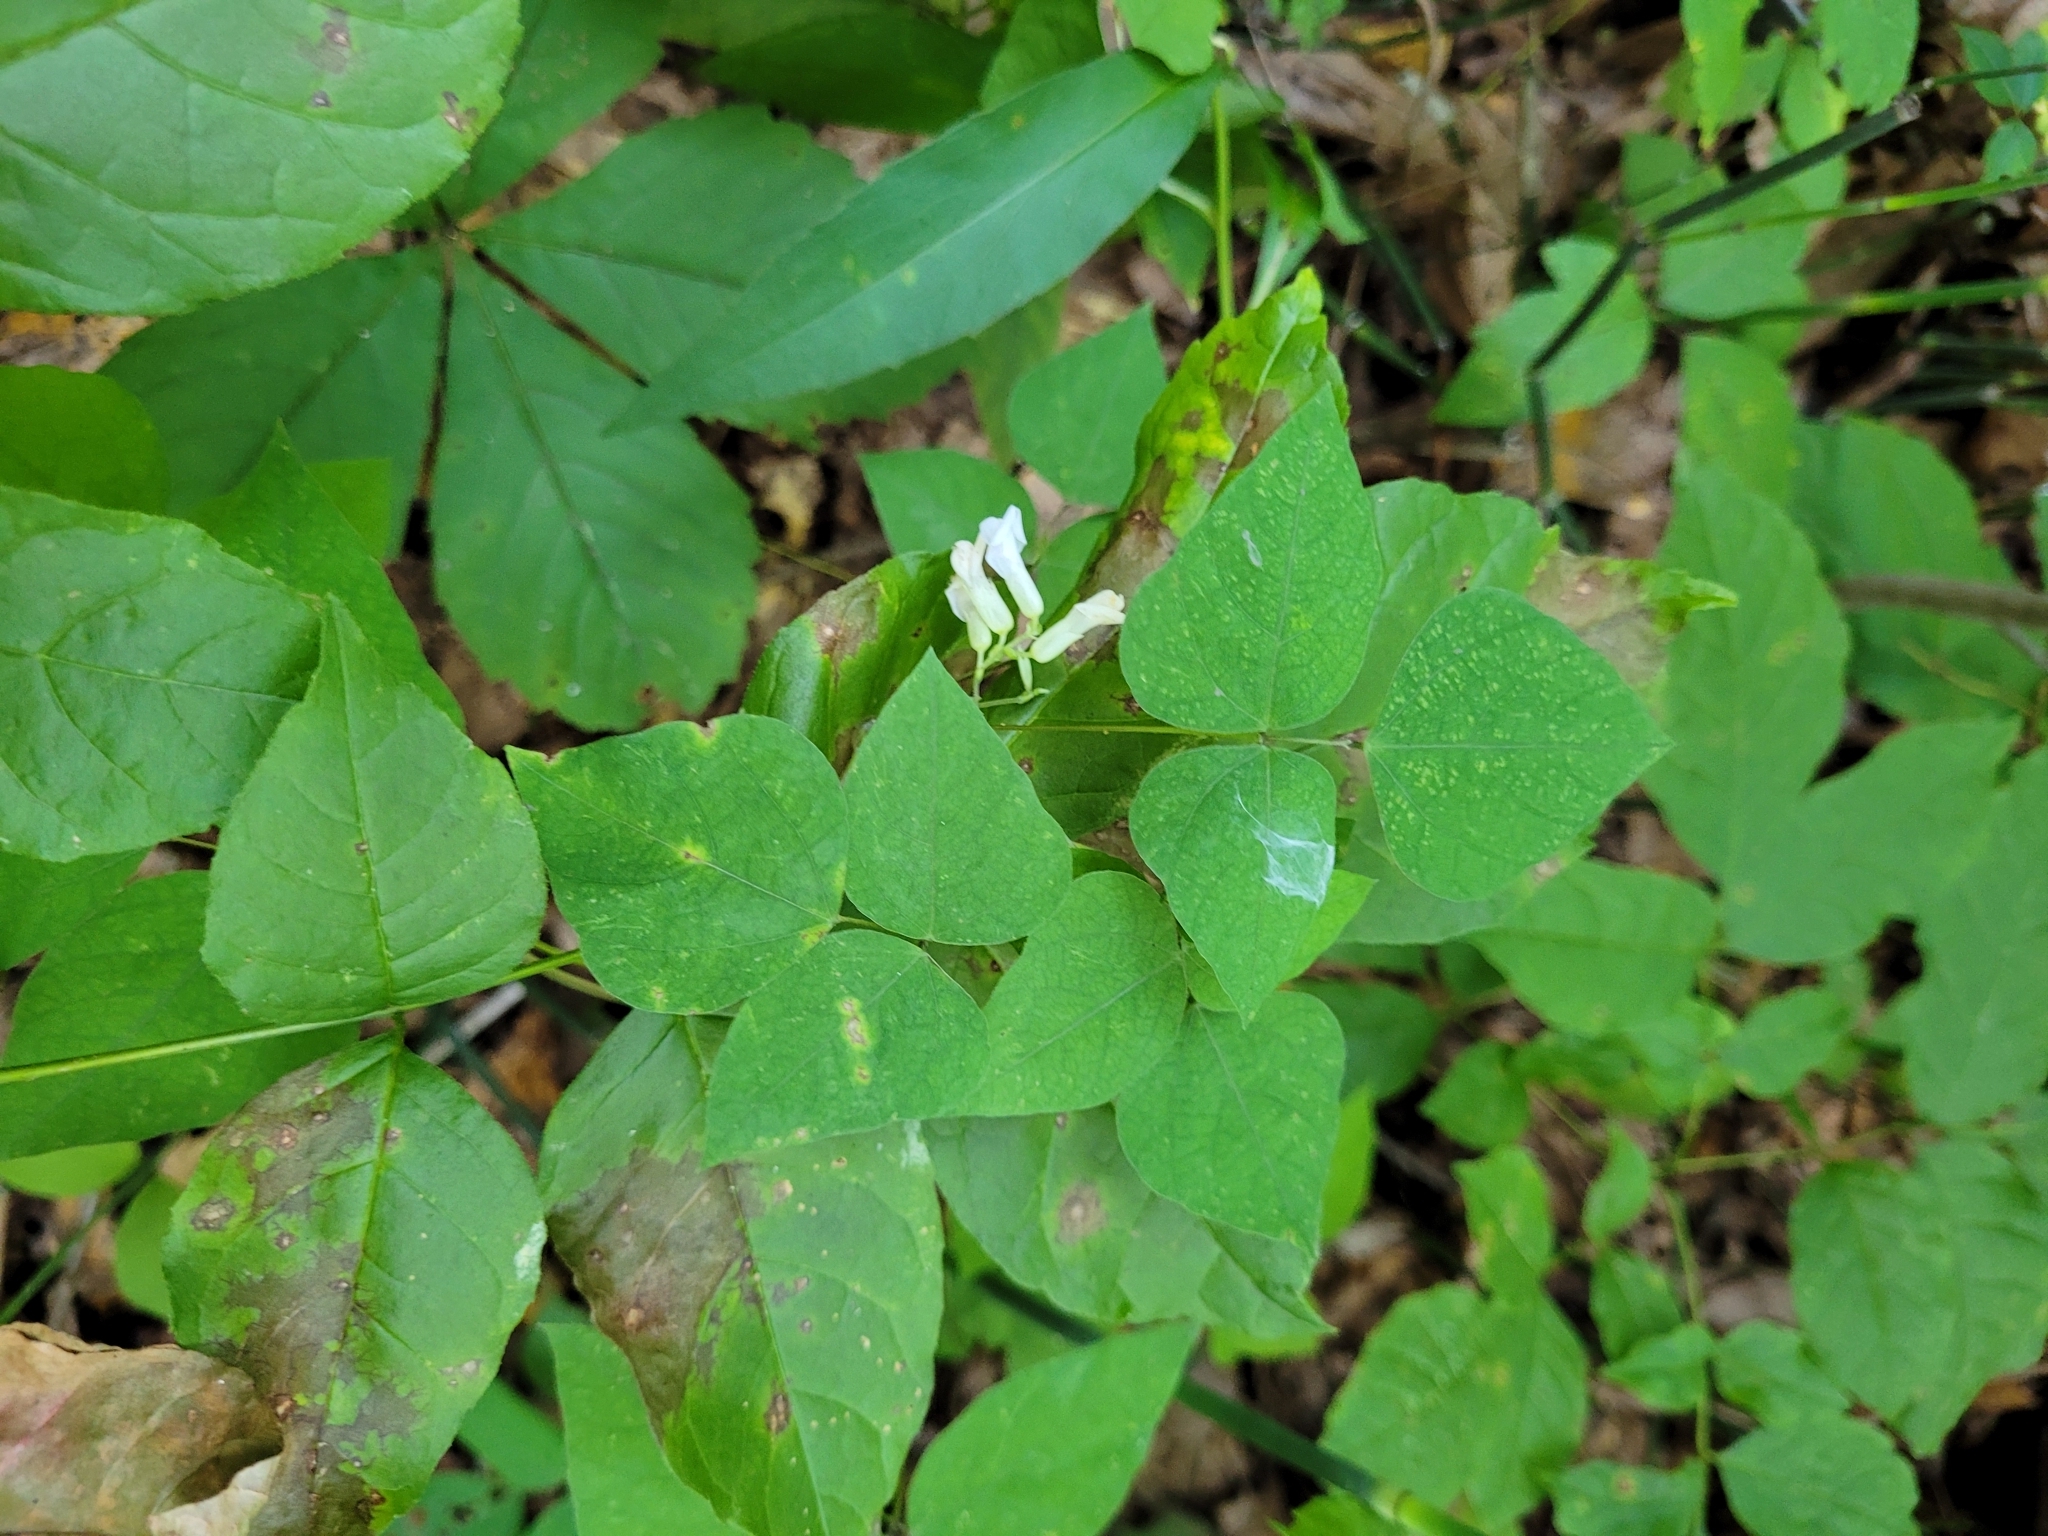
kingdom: Plantae
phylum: Tracheophyta
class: Magnoliopsida
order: Fabales
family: Fabaceae
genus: Amphicarpaea
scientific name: Amphicarpaea bracteata
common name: American hog peanut
